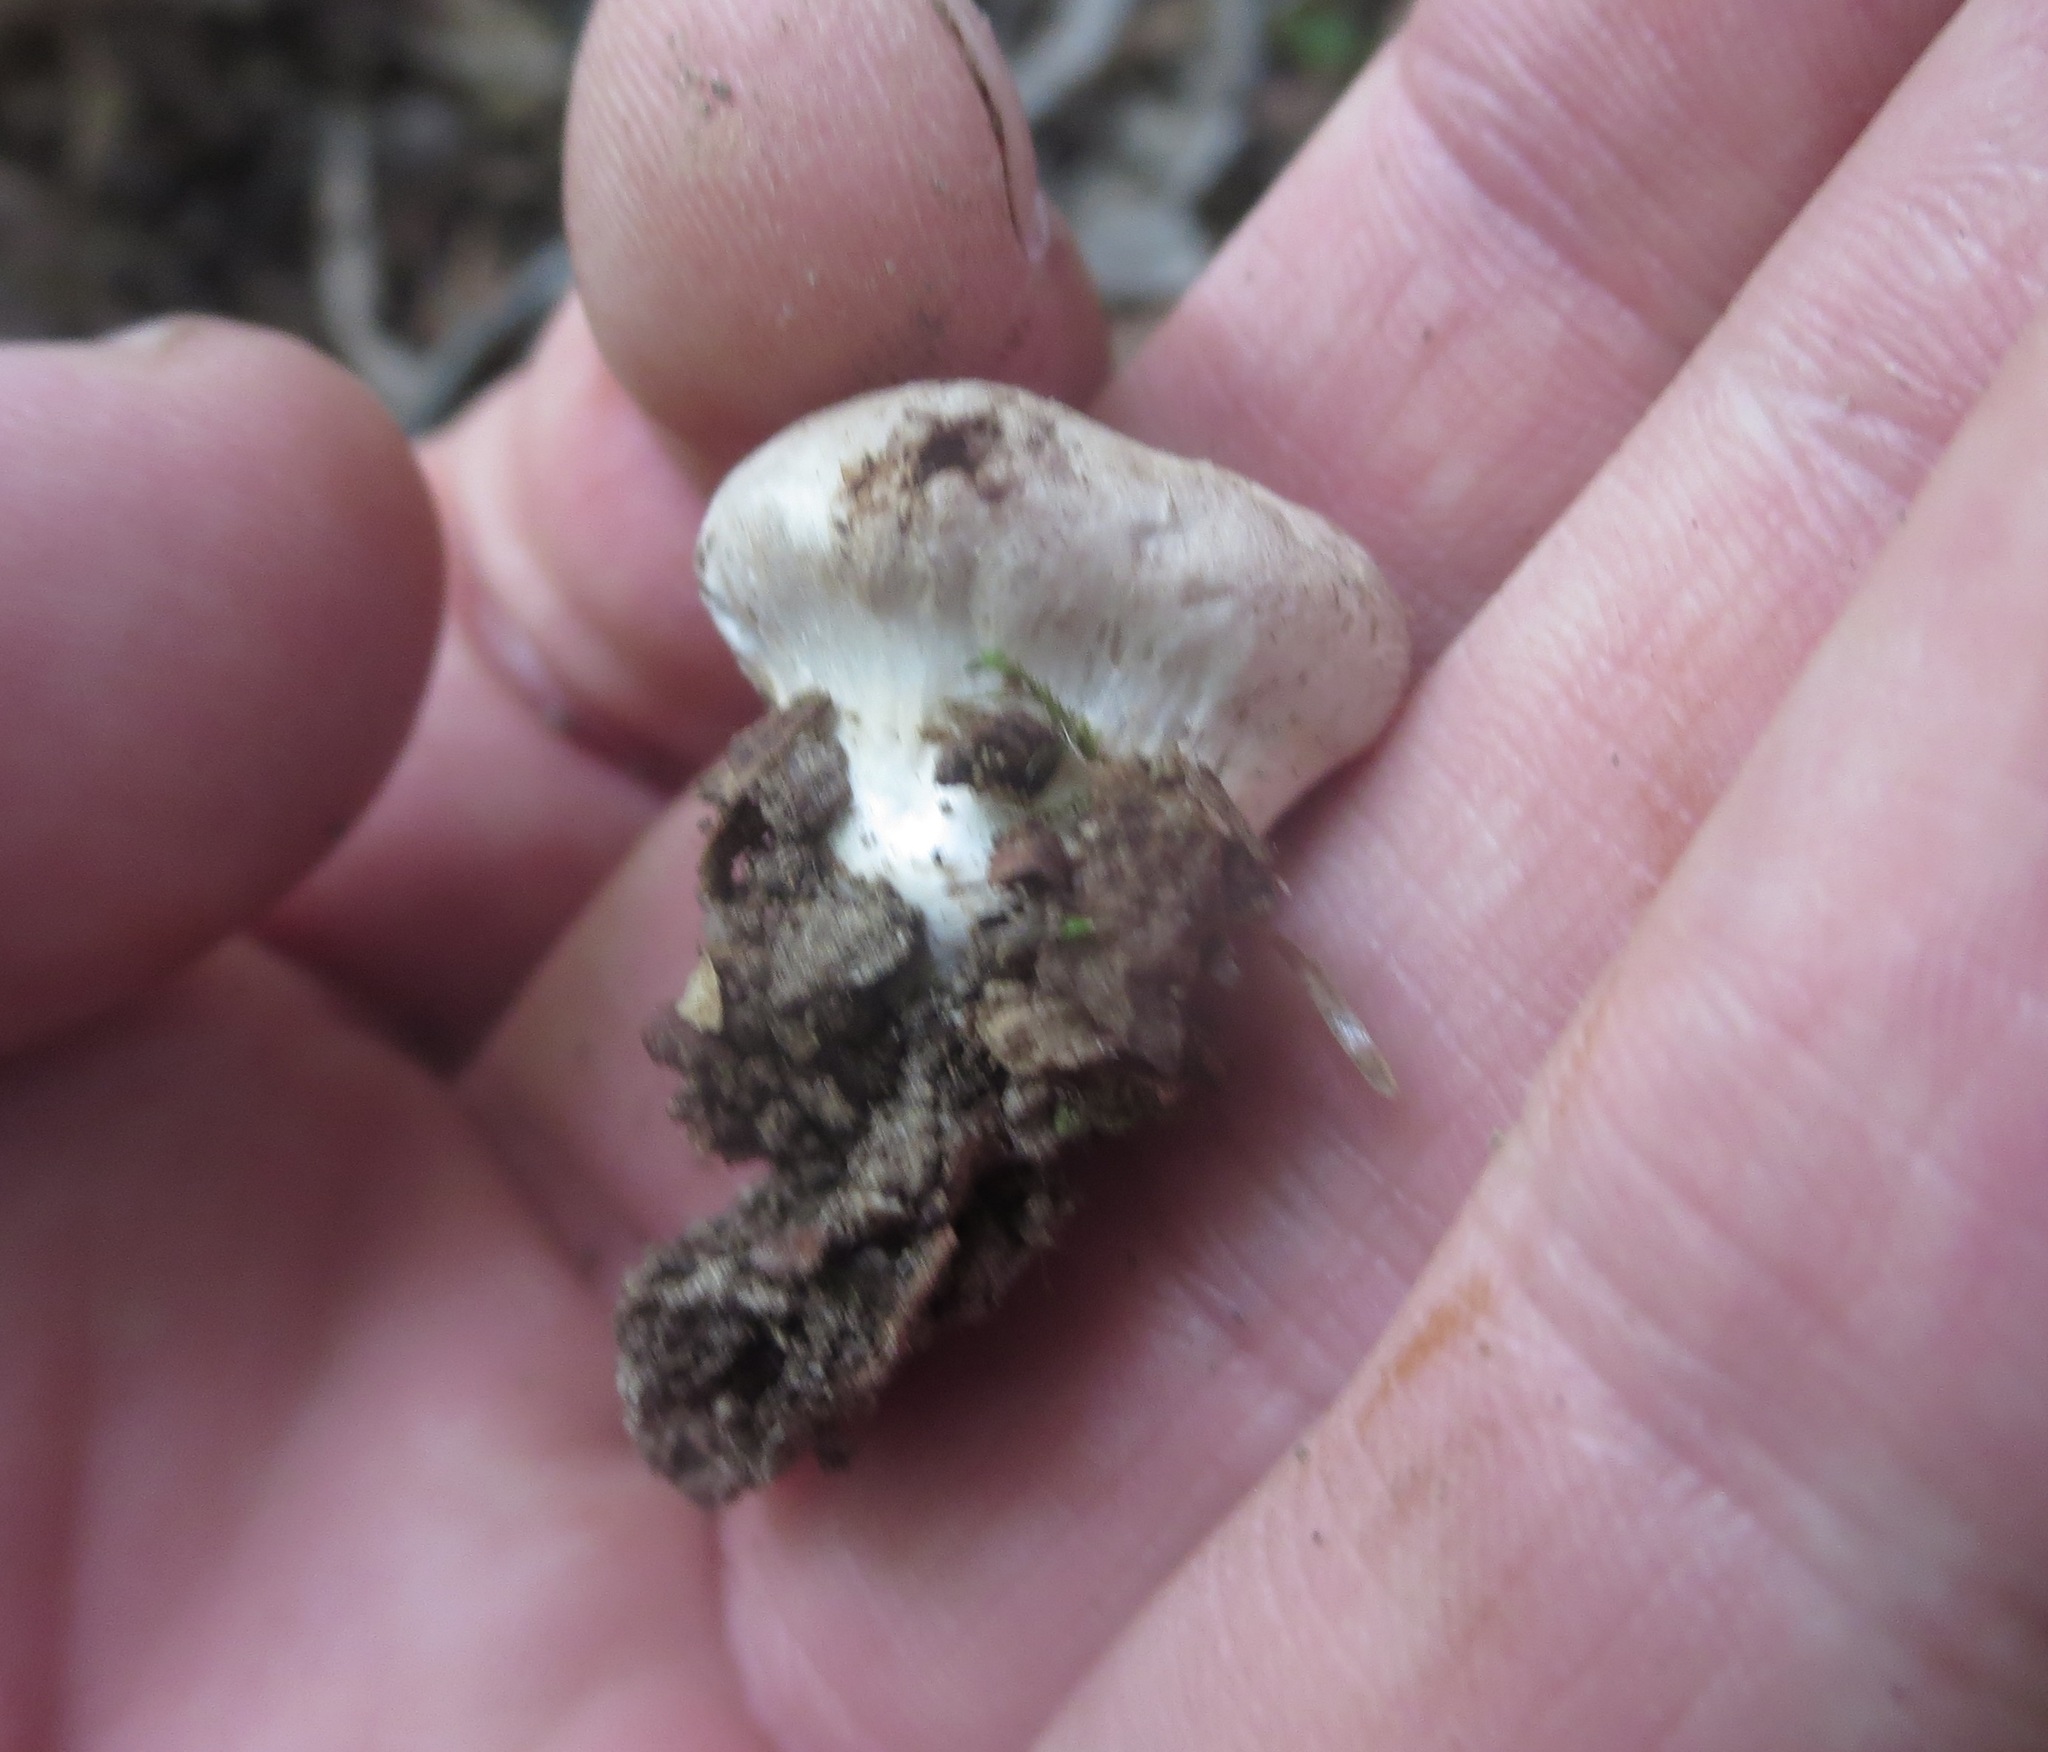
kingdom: Fungi
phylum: Basidiomycota
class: Agaricomycetes
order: Agaricales
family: Cortinariaceae
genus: Cortinarius
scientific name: Cortinarius albidus
